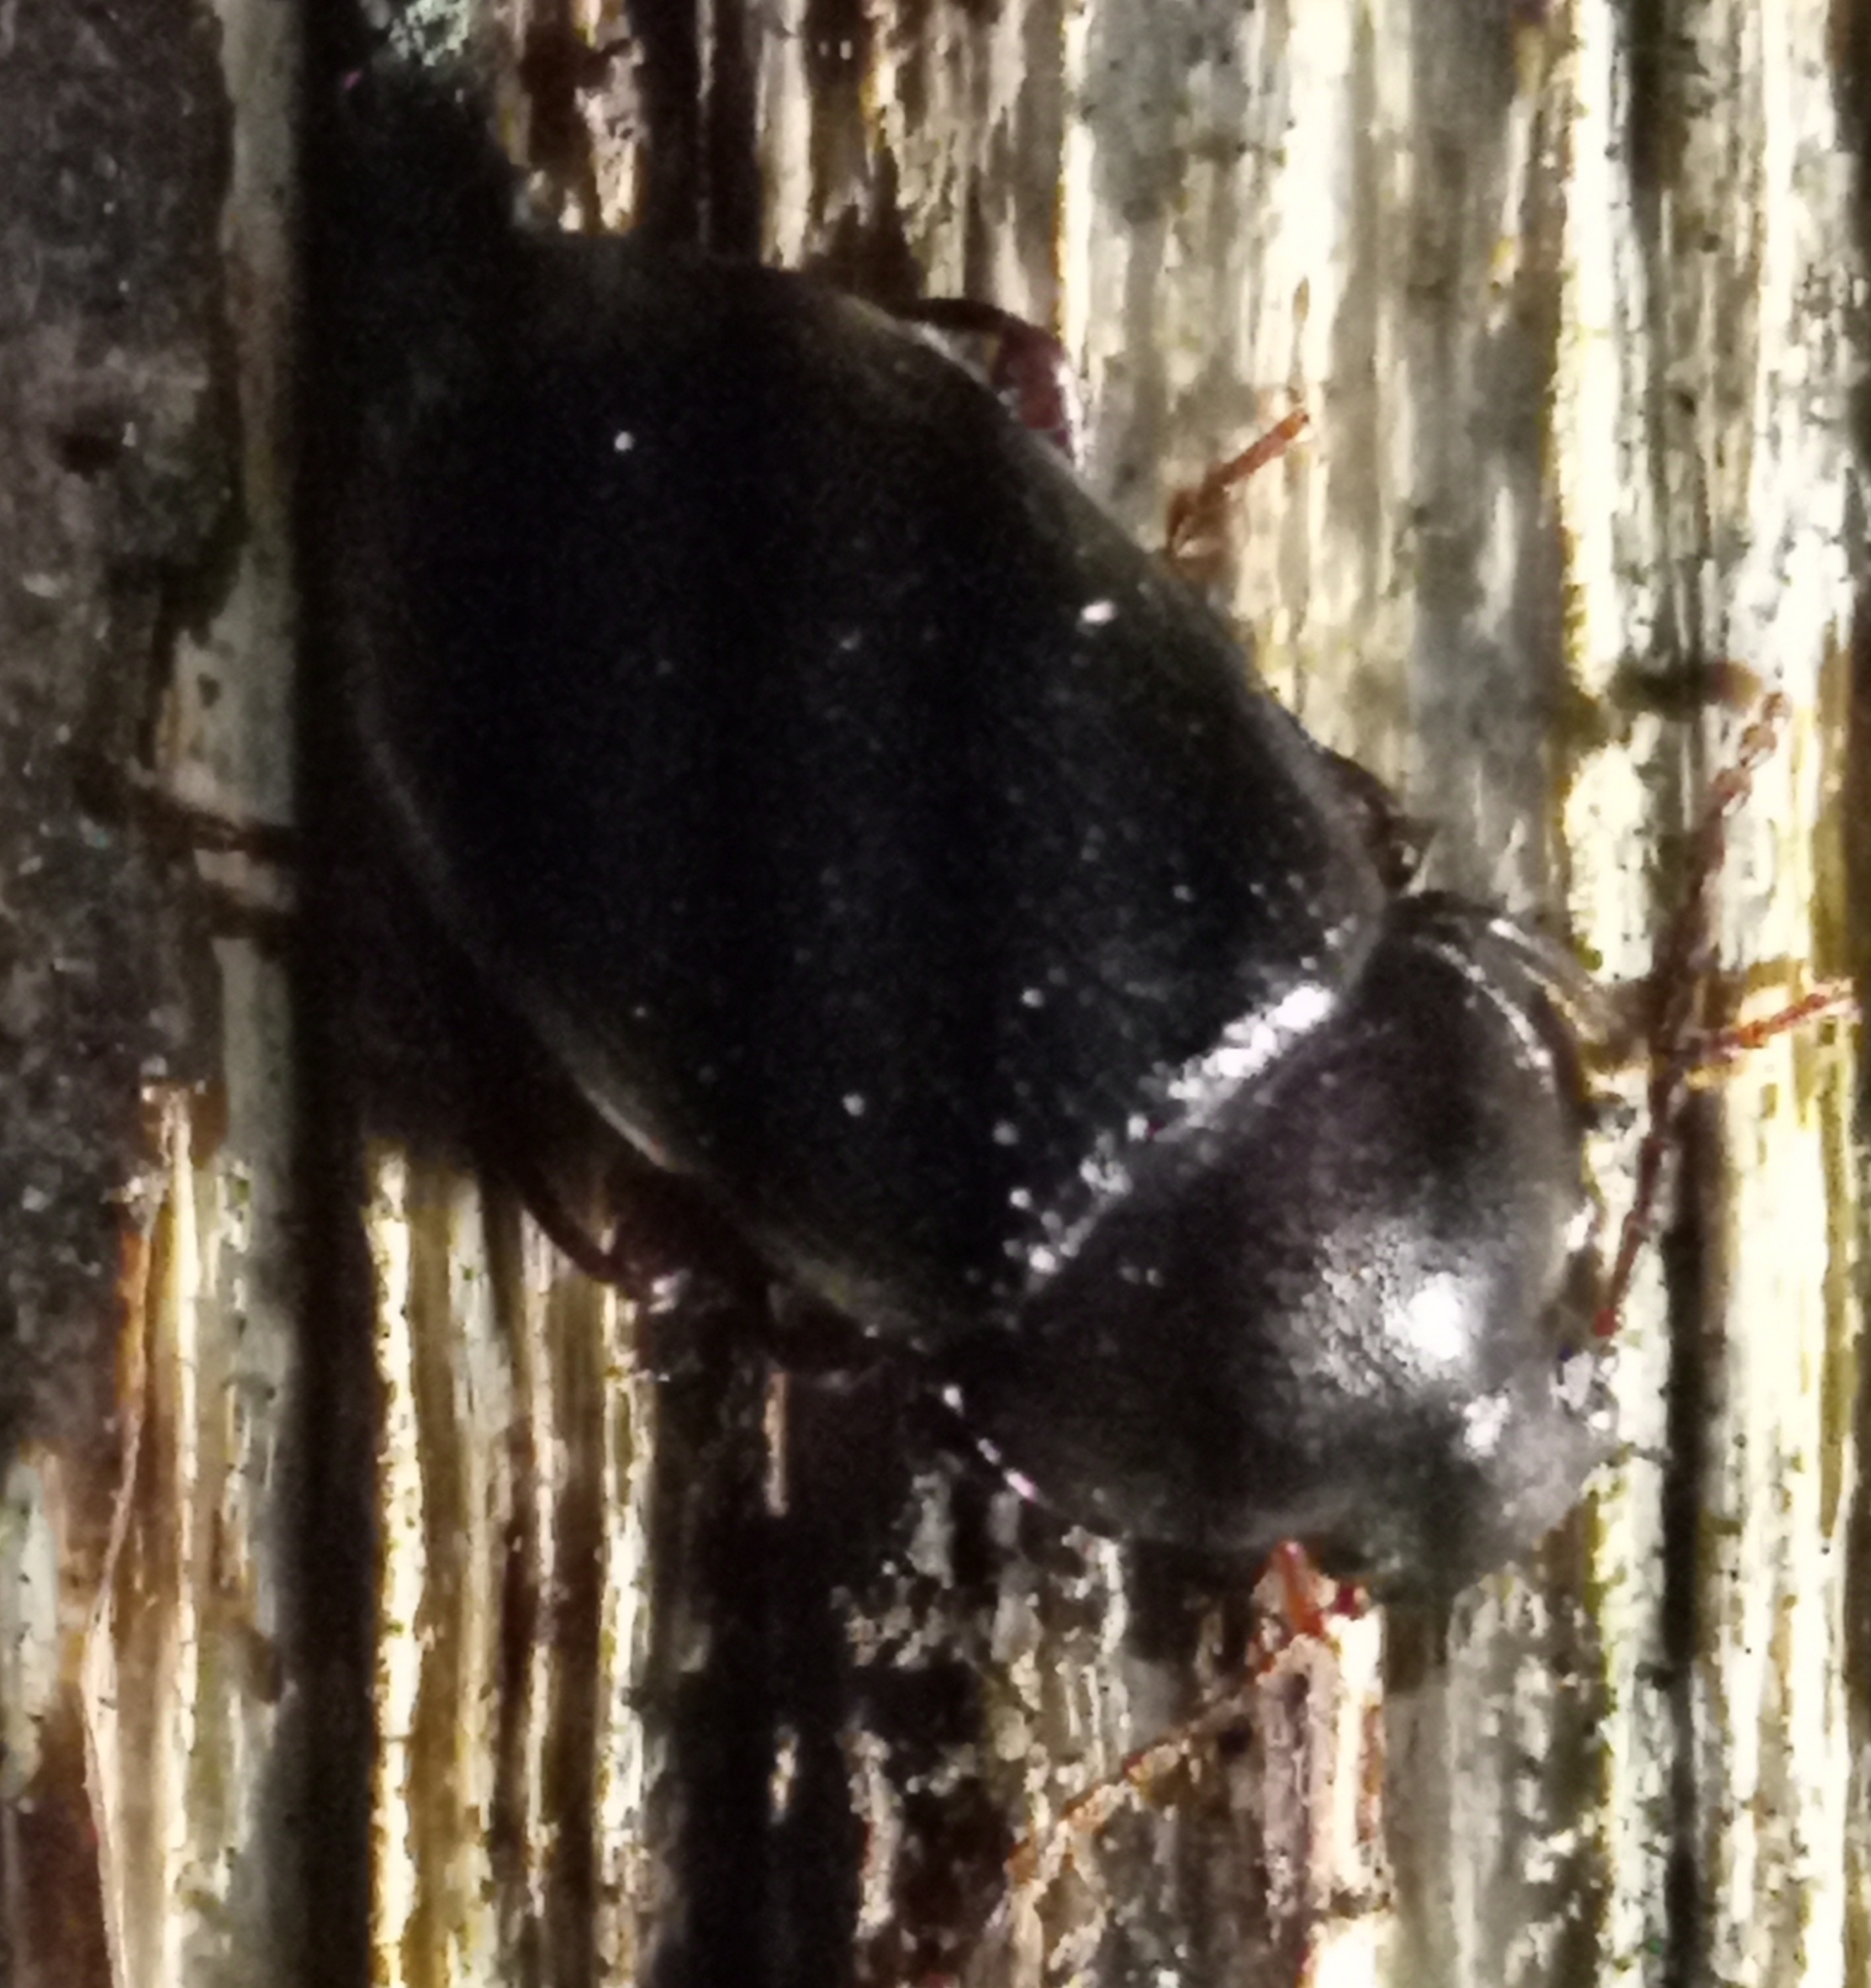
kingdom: Animalia
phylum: Arthropoda
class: Insecta
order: Coleoptera
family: Tenebrionidae
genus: Nalassus
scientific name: Nalassus laevioctostriatus
